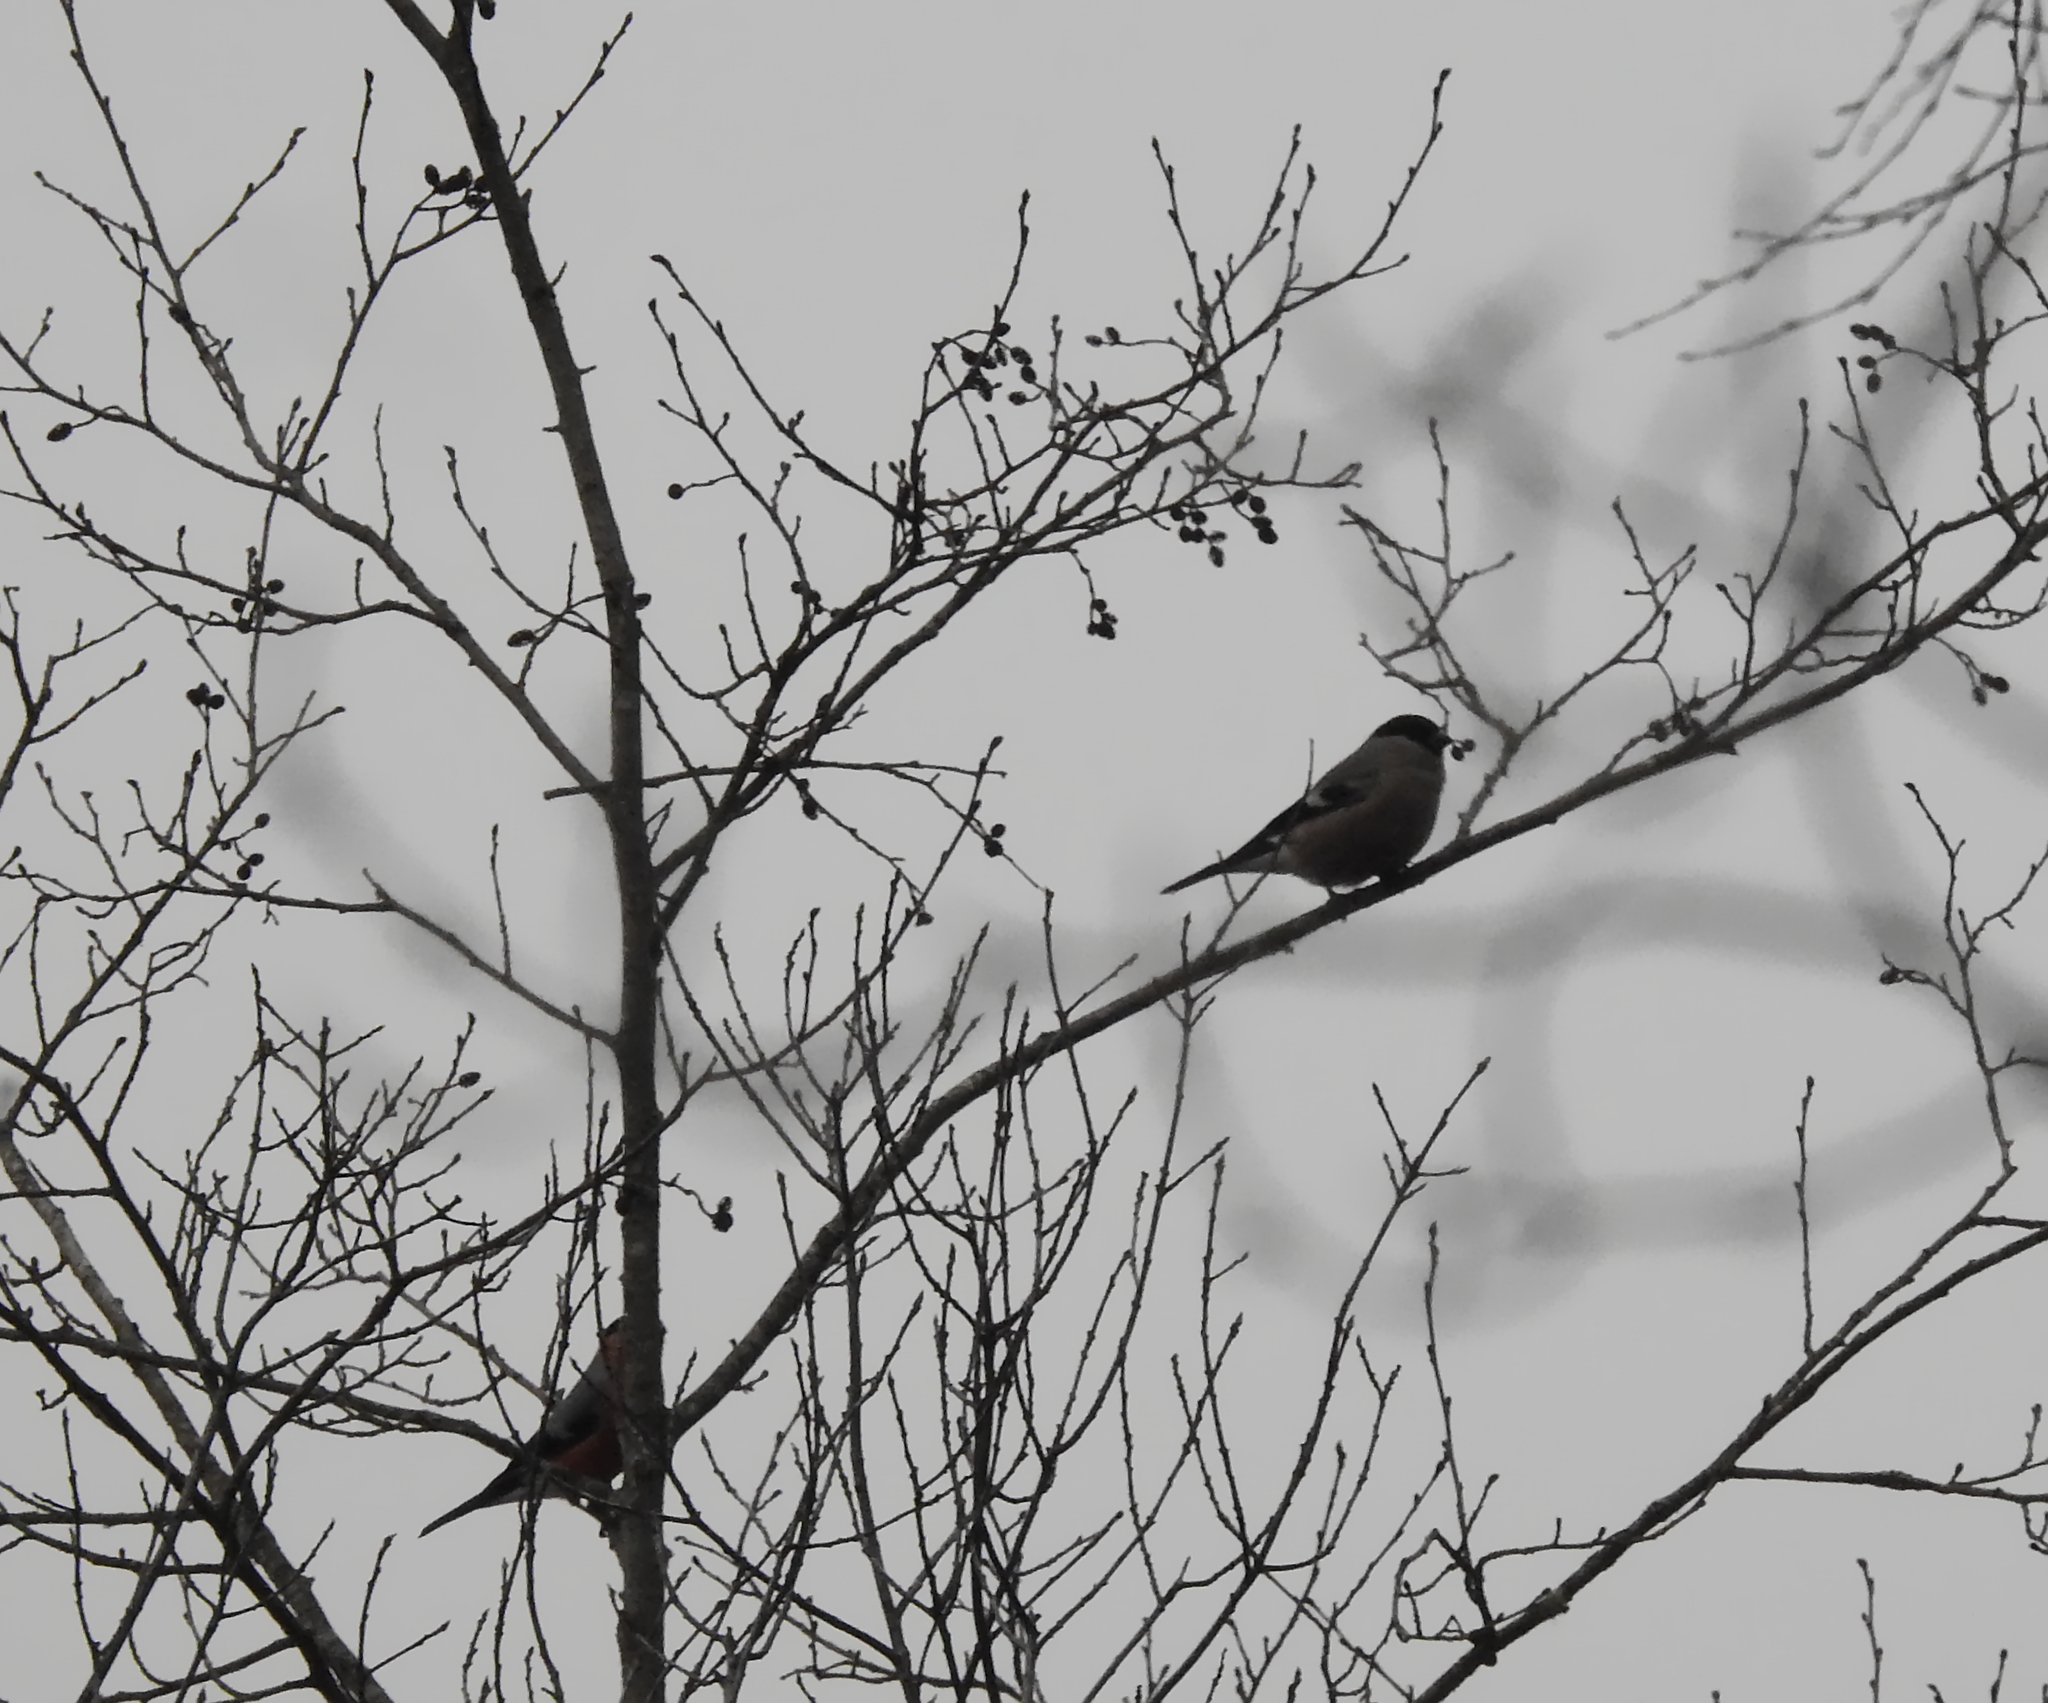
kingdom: Animalia
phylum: Chordata
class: Aves
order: Passeriformes
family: Fringillidae
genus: Pyrrhula
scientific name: Pyrrhula pyrrhula
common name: Eurasian bullfinch
